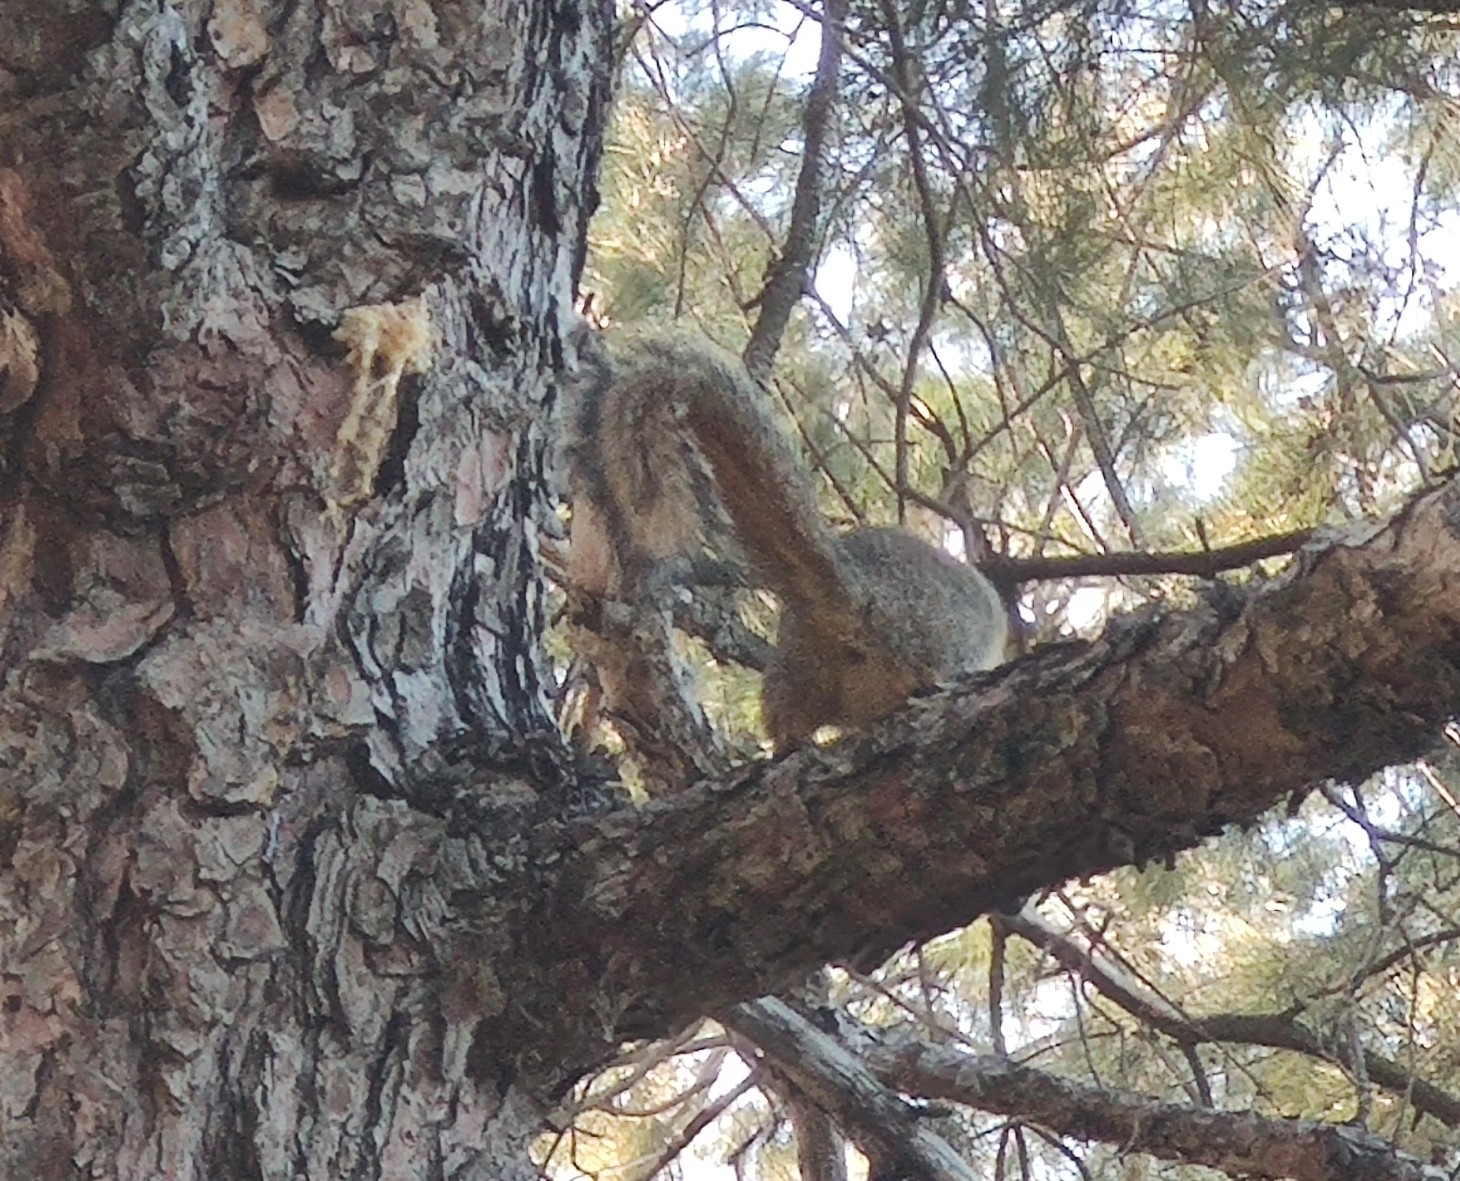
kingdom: Animalia
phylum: Chordata
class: Mammalia
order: Rodentia
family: Sciuridae
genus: Sciurus
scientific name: Sciurus niger
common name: Fox squirrel
